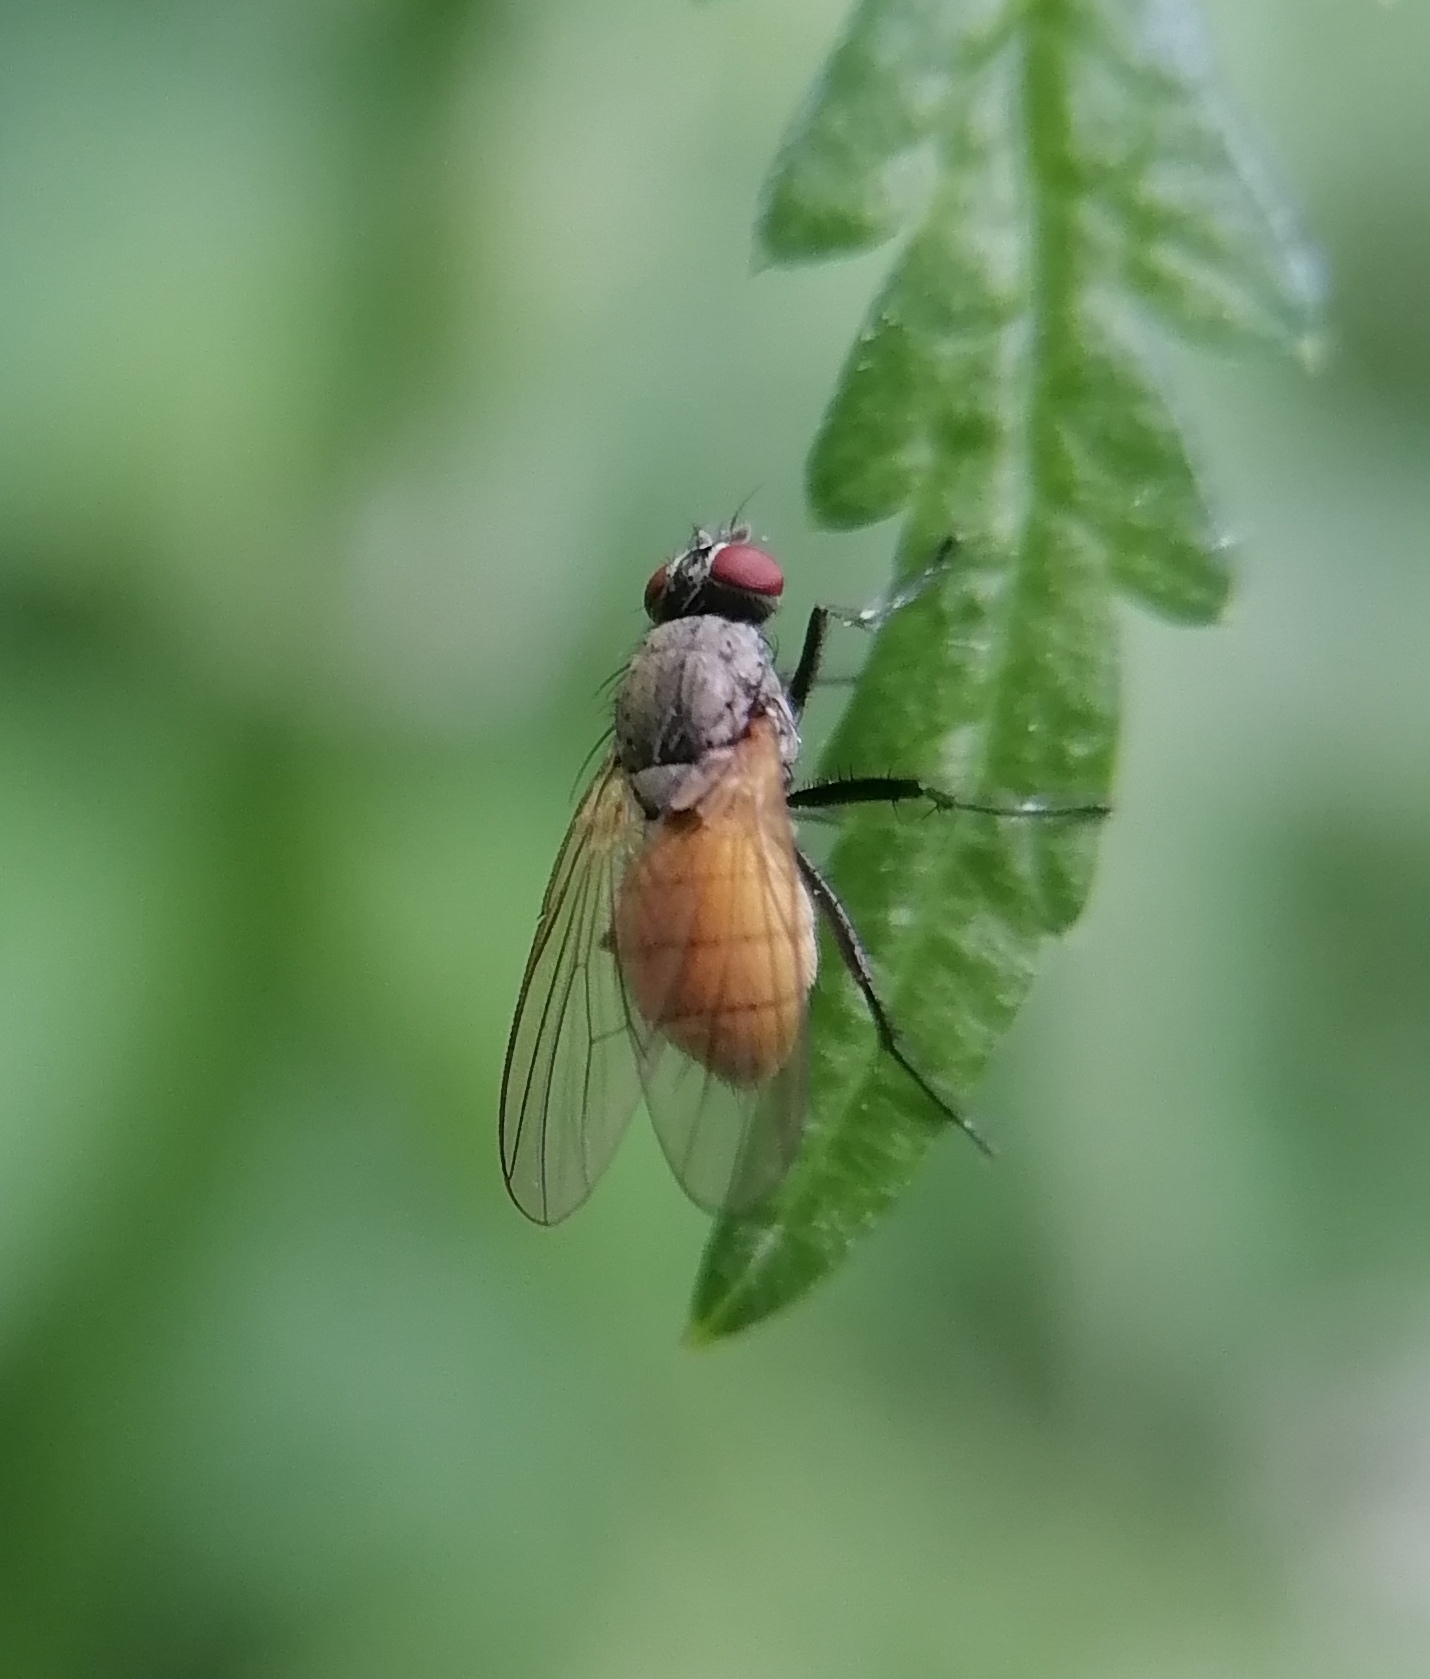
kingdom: Animalia
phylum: Arthropoda
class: Insecta
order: Diptera
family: Muscidae
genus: Thricops
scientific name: Thricops semicinereus
